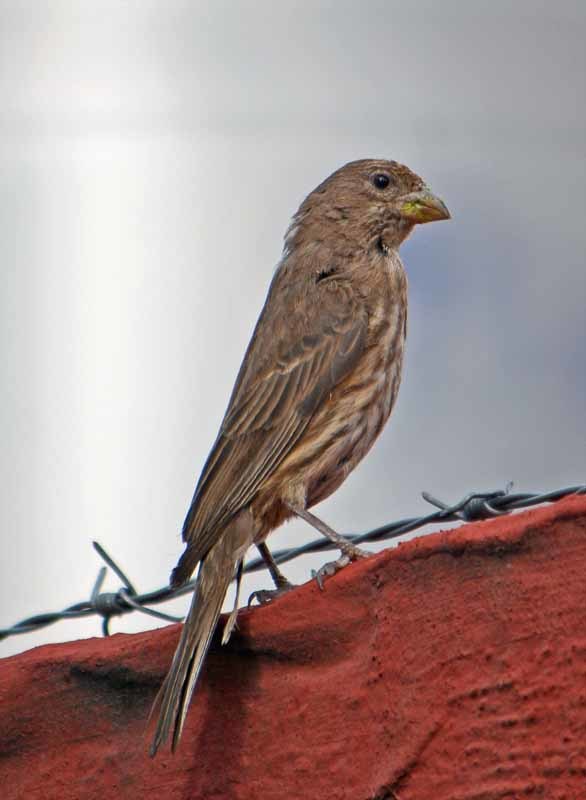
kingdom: Animalia
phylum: Chordata
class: Aves
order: Passeriformes
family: Fringillidae
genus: Haemorhous
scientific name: Haemorhous mexicanus
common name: House finch
